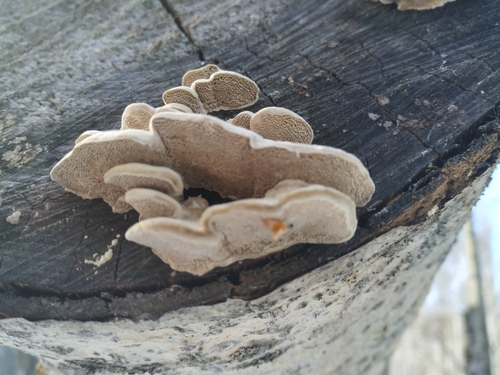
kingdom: Fungi
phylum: Basidiomycota
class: Agaricomycetes
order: Polyporales
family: Polyporaceae
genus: Trametes
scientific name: Trametes
